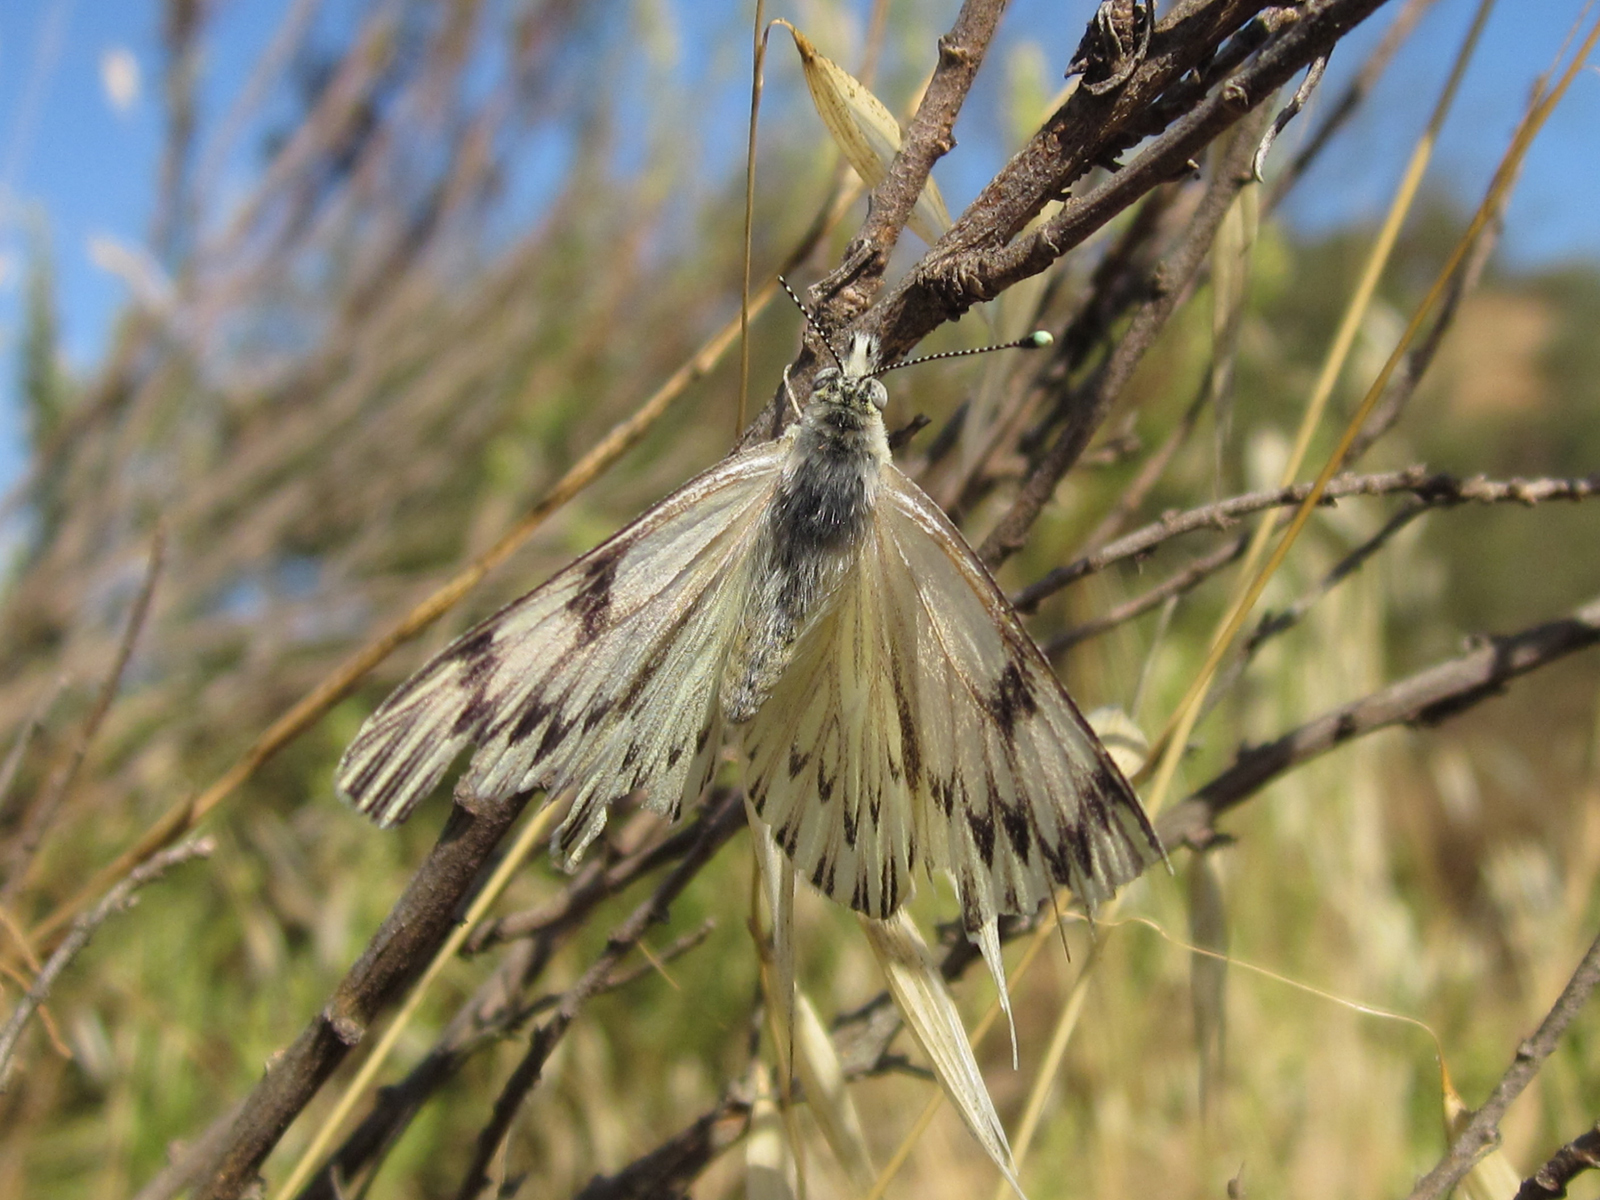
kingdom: Animalia
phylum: Arthropoda
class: Insecta
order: Lepidoptera
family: Pieridae
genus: Tatochila
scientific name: Tatochila mercedis
